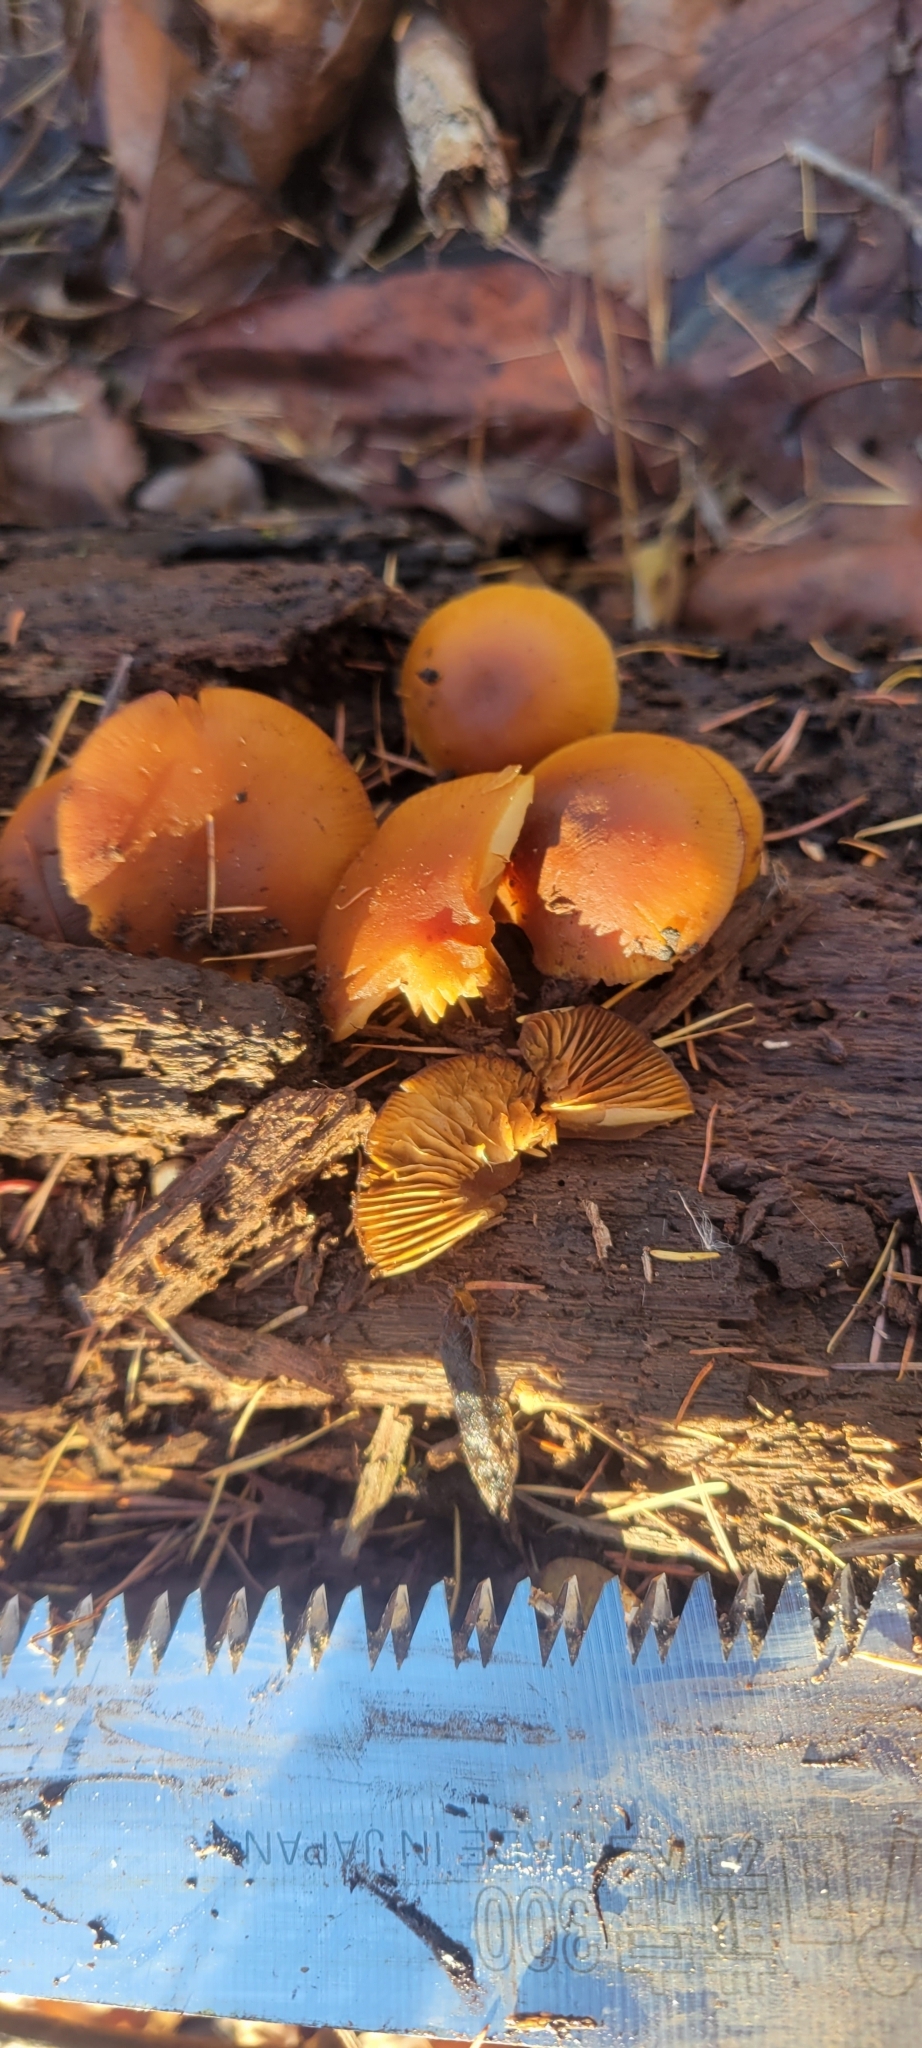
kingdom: Fungi
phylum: Basidiomycota
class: Agaricomycetes
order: Agaricales
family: Hymenogastraceae
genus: Galerina
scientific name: Galerina marginata
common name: Funeral bell
